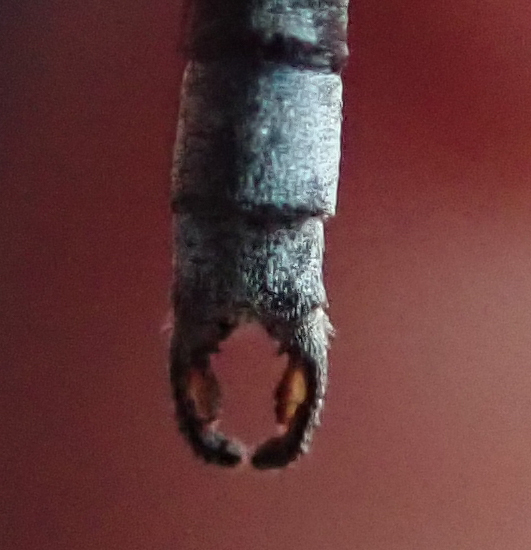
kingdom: Animalia
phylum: Arthropoda
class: Insecta
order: Odonata
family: Lestidae
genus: Lestes
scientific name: Lestes pallidus
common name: Pallid spreadwing
